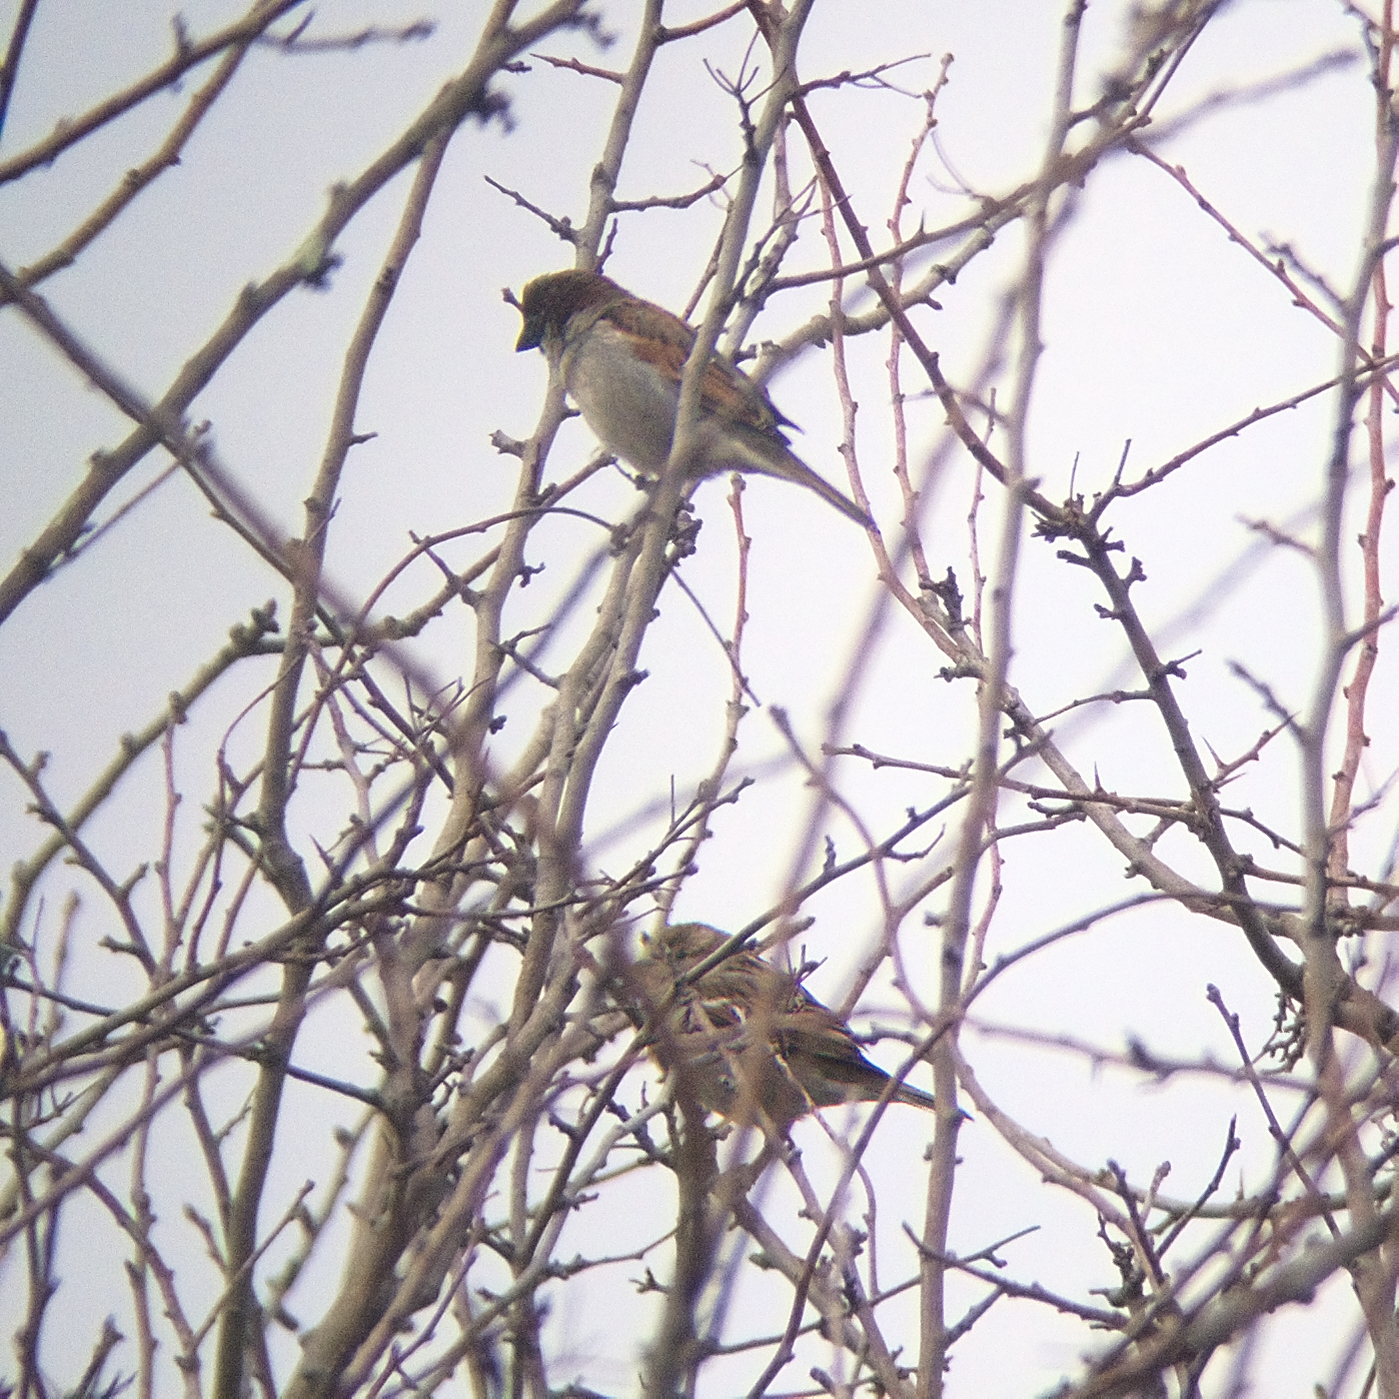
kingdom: Animalia
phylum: Chordata
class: Aves
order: Passeriformes
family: Passeridae
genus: Passer
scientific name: Passer domesticus
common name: House sparrow
